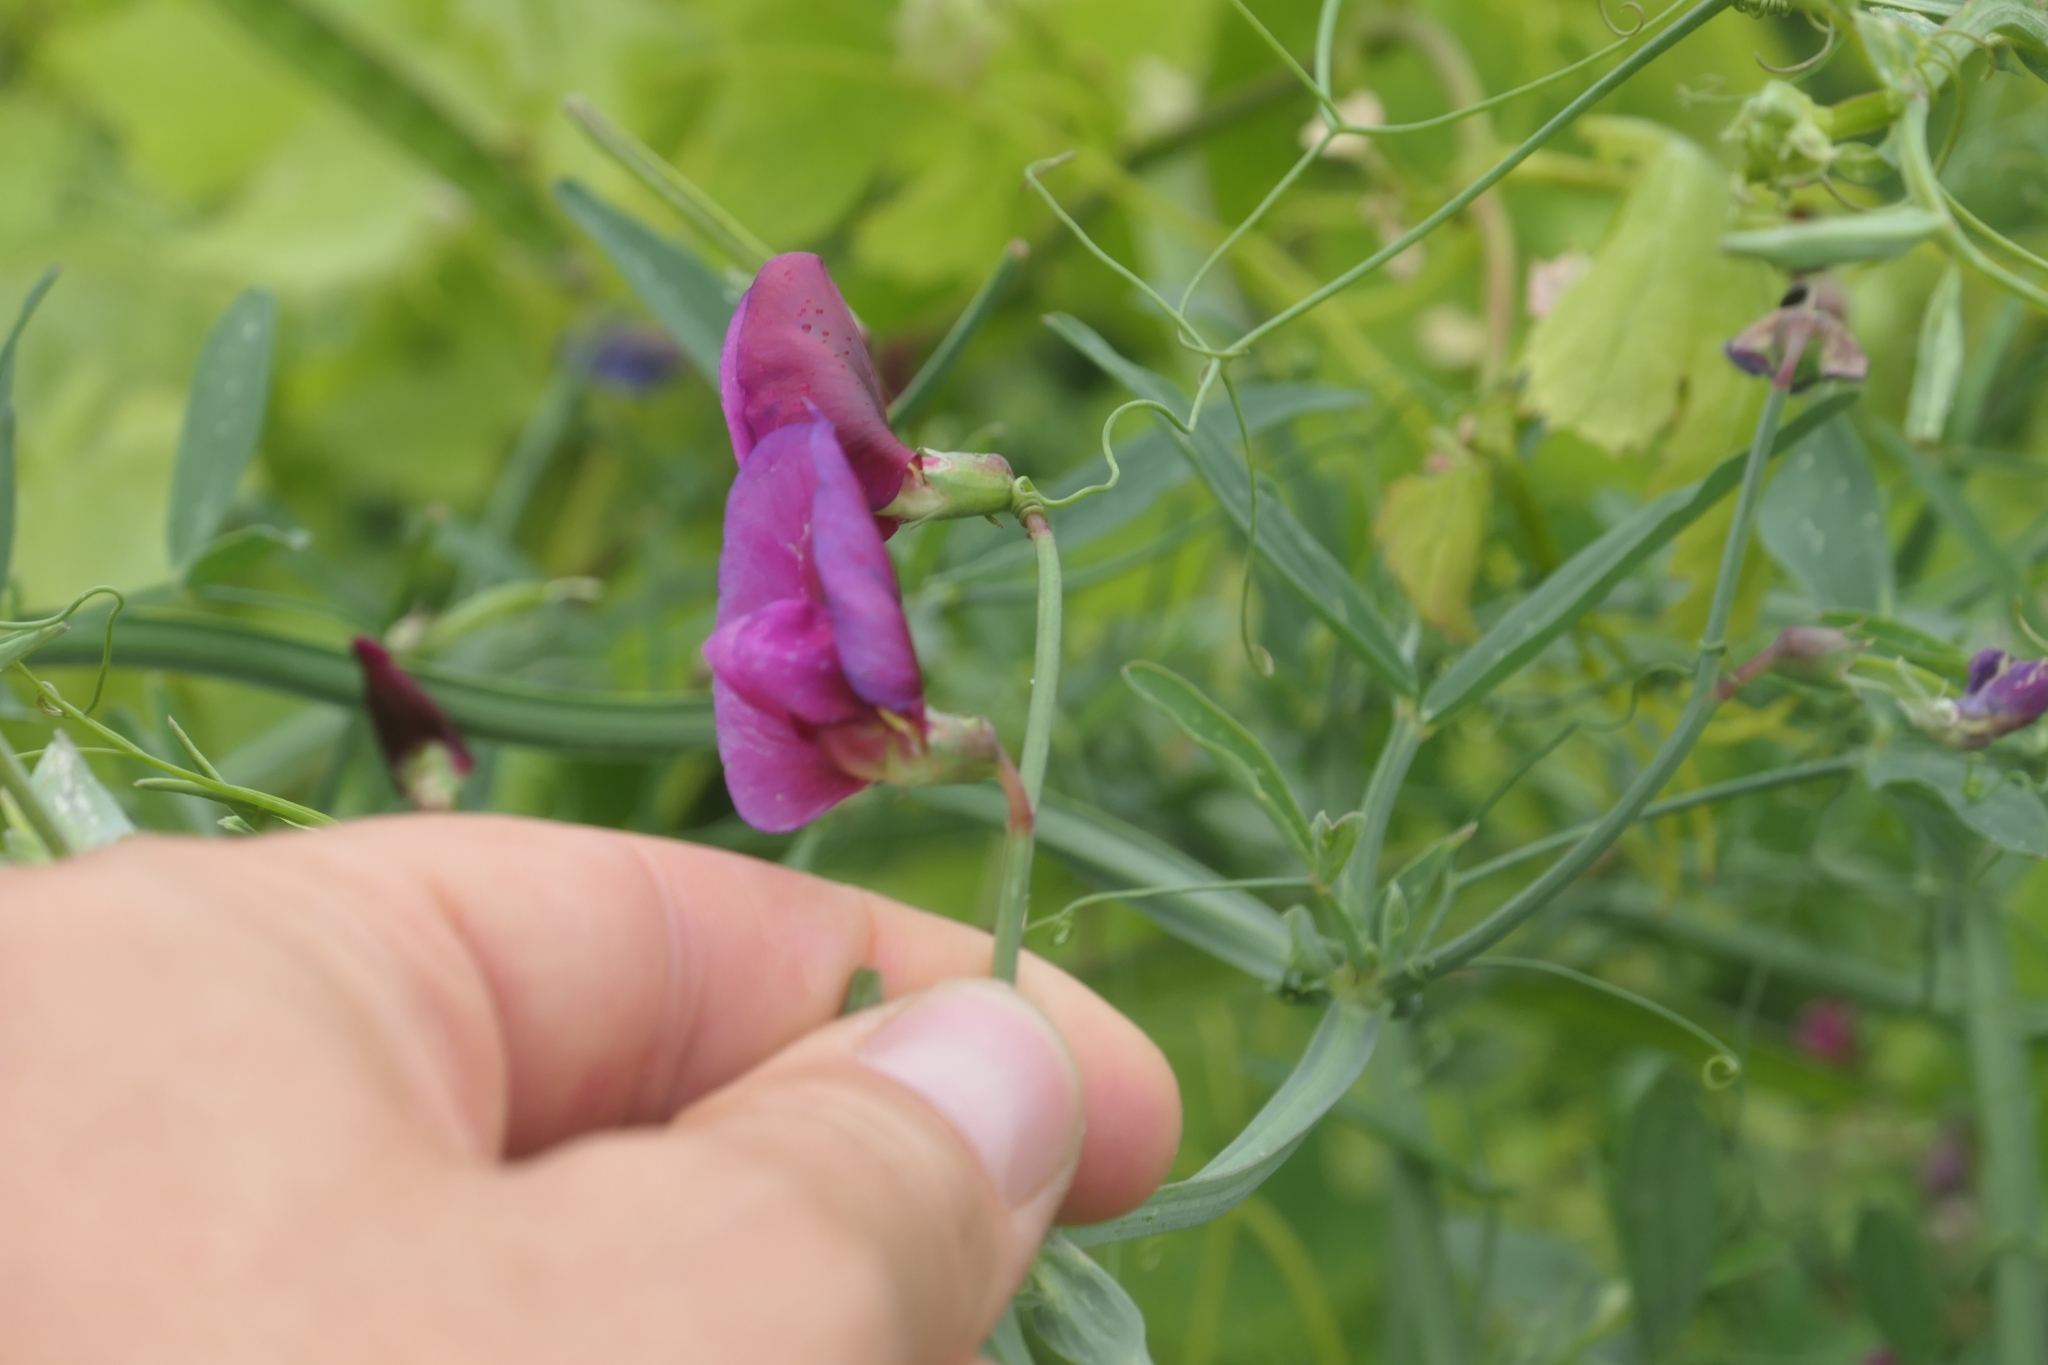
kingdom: Plantae
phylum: Tracheophyta
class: Magnoliopsida
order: Fabales
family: Fabaceae
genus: Lathyrus
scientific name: Lathyrus tingitanus
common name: Tangier pea
